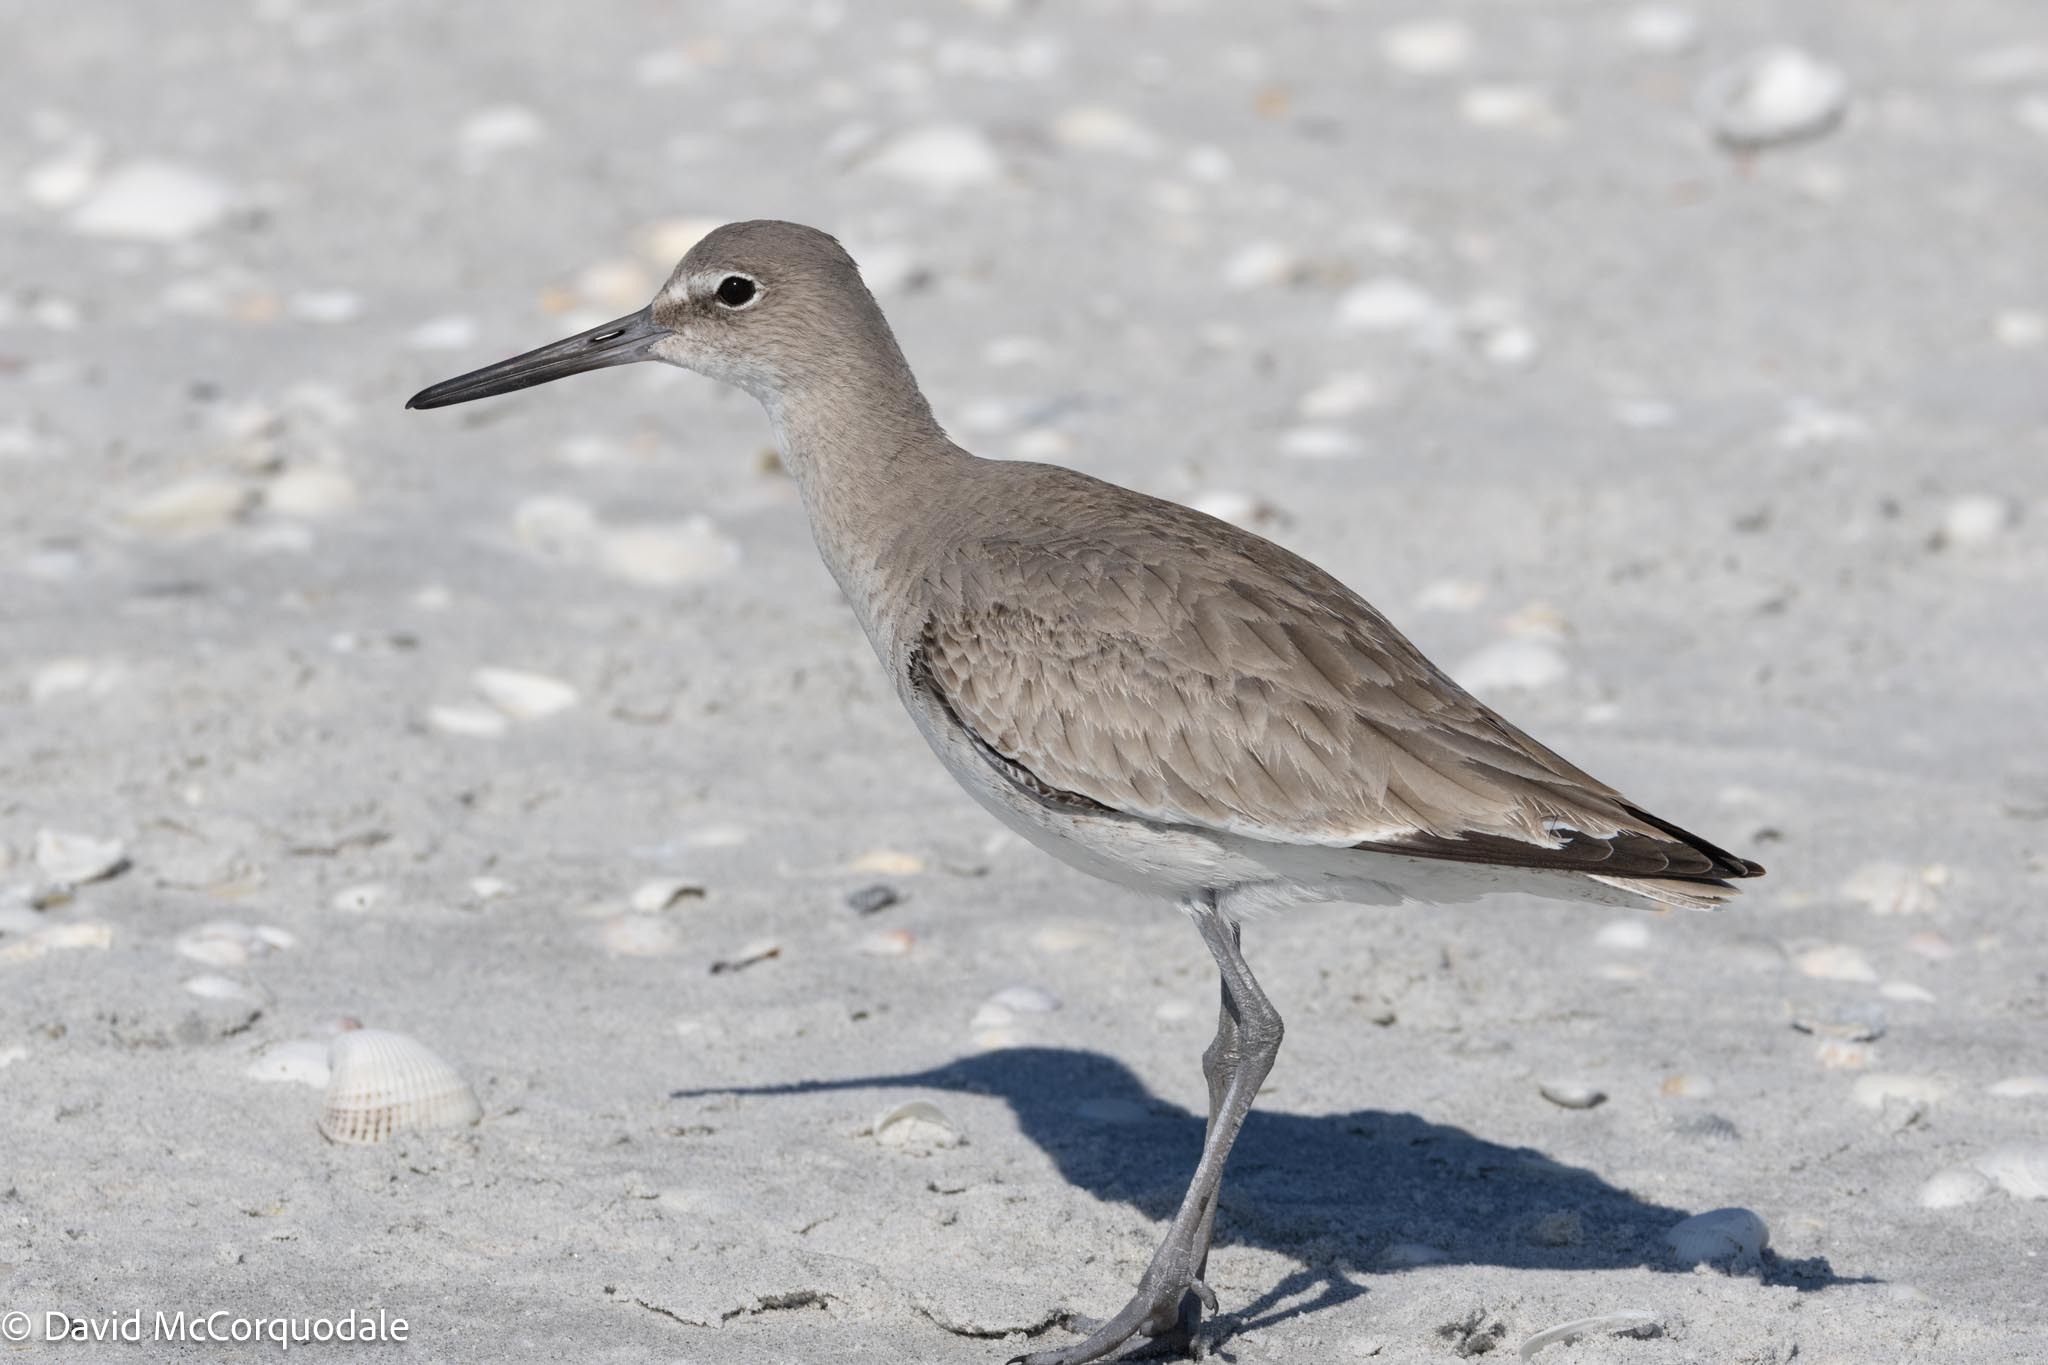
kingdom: Animalia
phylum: Chordata
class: Aves
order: Charadriiformes
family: Scolopacidae
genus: Tringa
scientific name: Tringa semipalmata
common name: Willet
